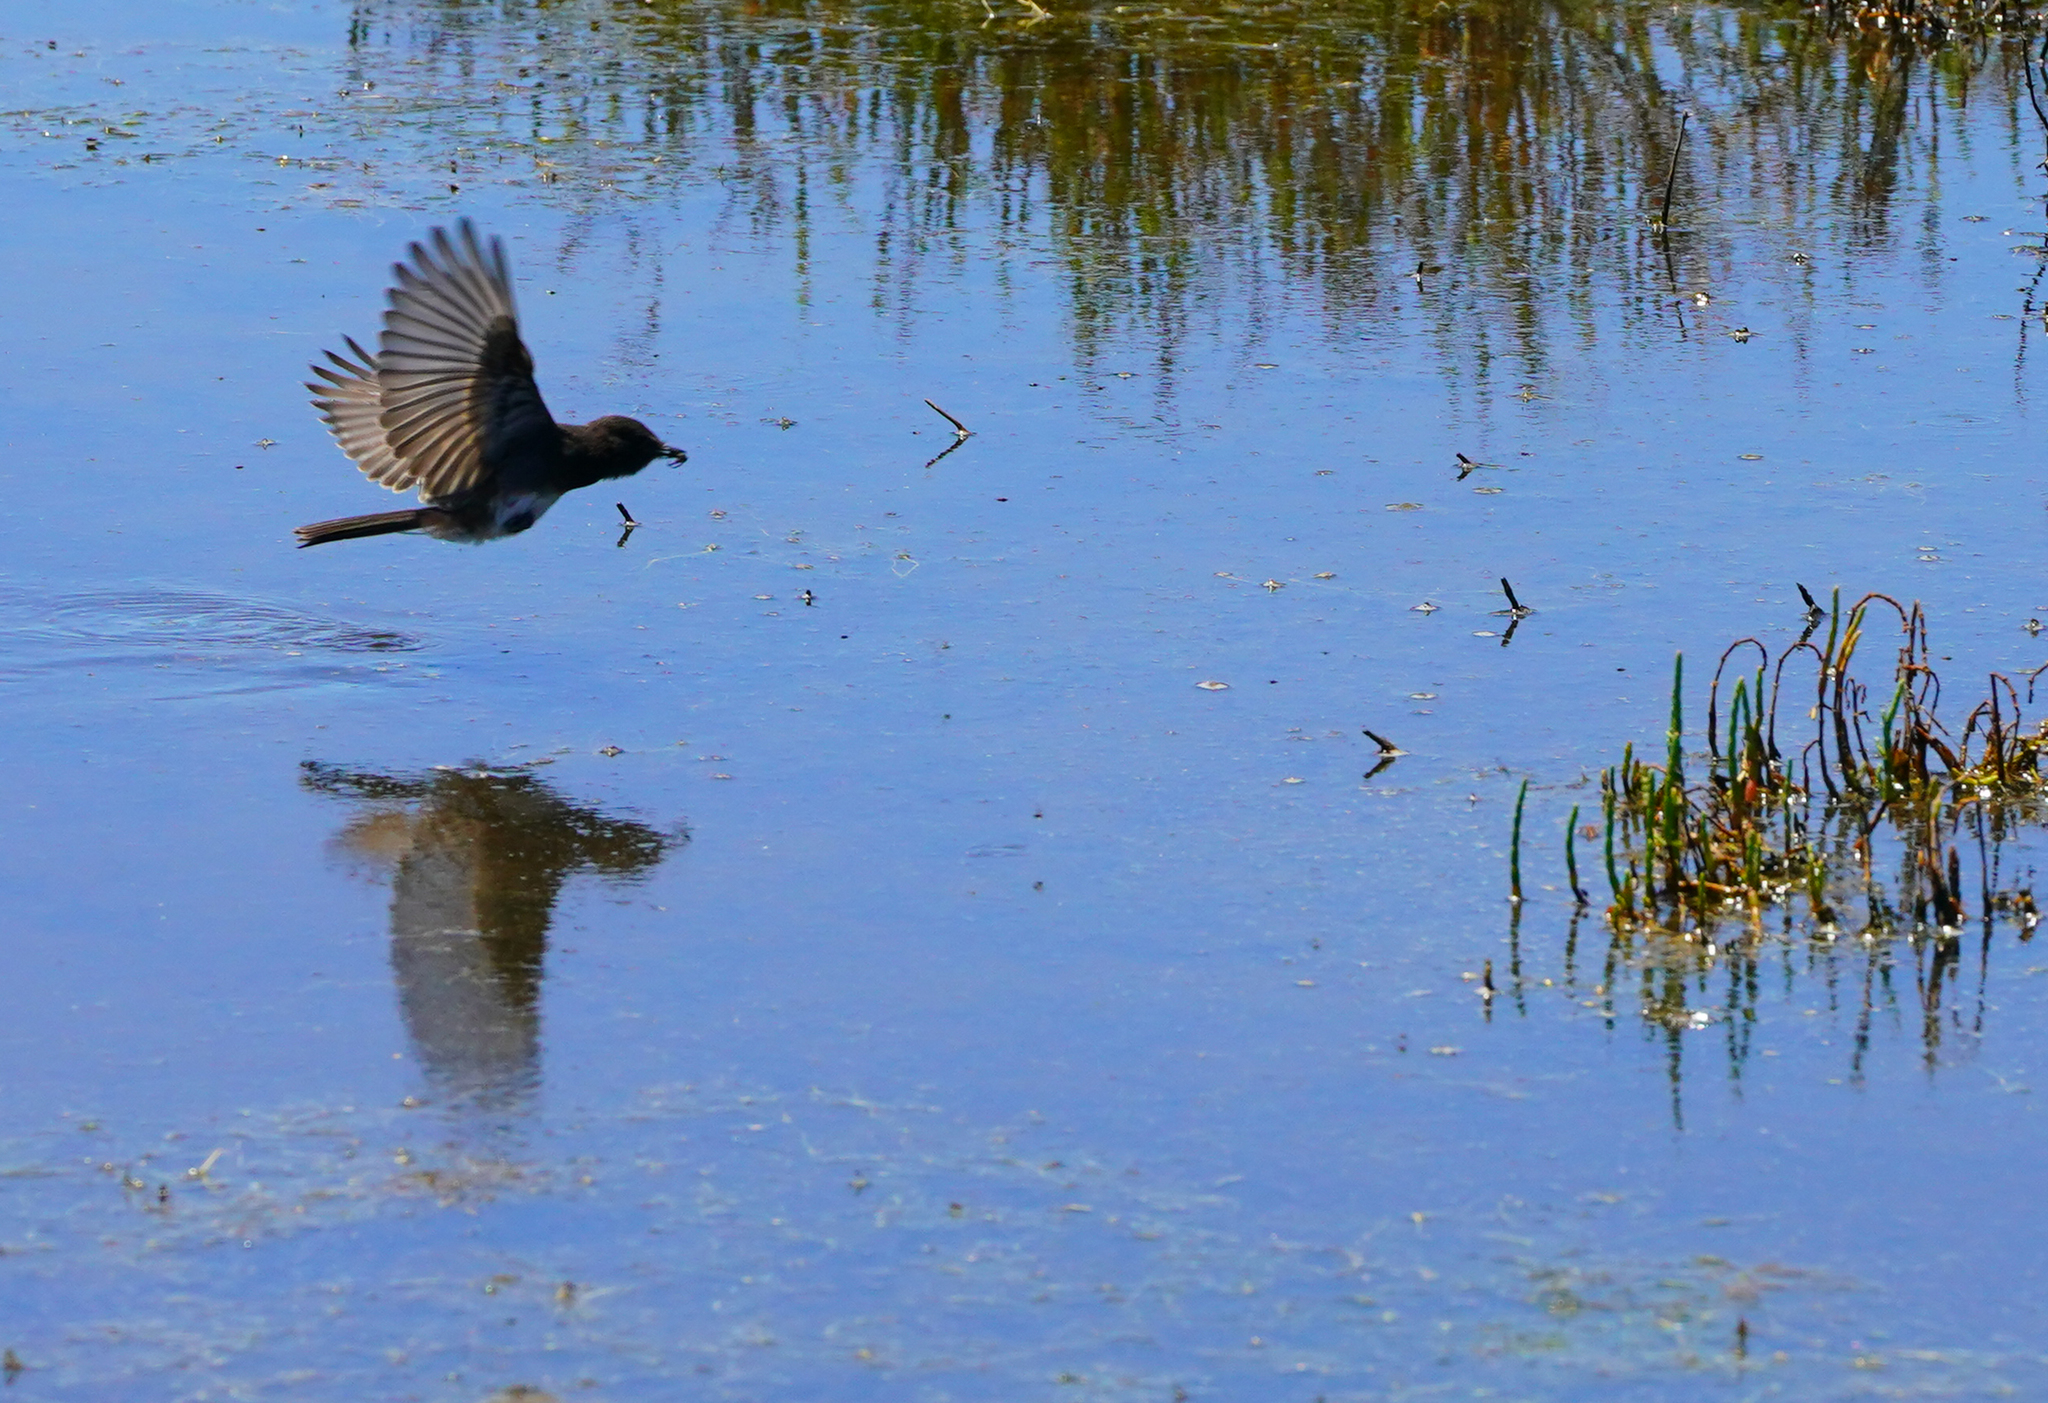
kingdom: Animalia
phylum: Chordata
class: Aves
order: Passeriformes
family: Tyrannidae
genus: Sayornis
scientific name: Sayornis nigricans
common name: Black phoebe
